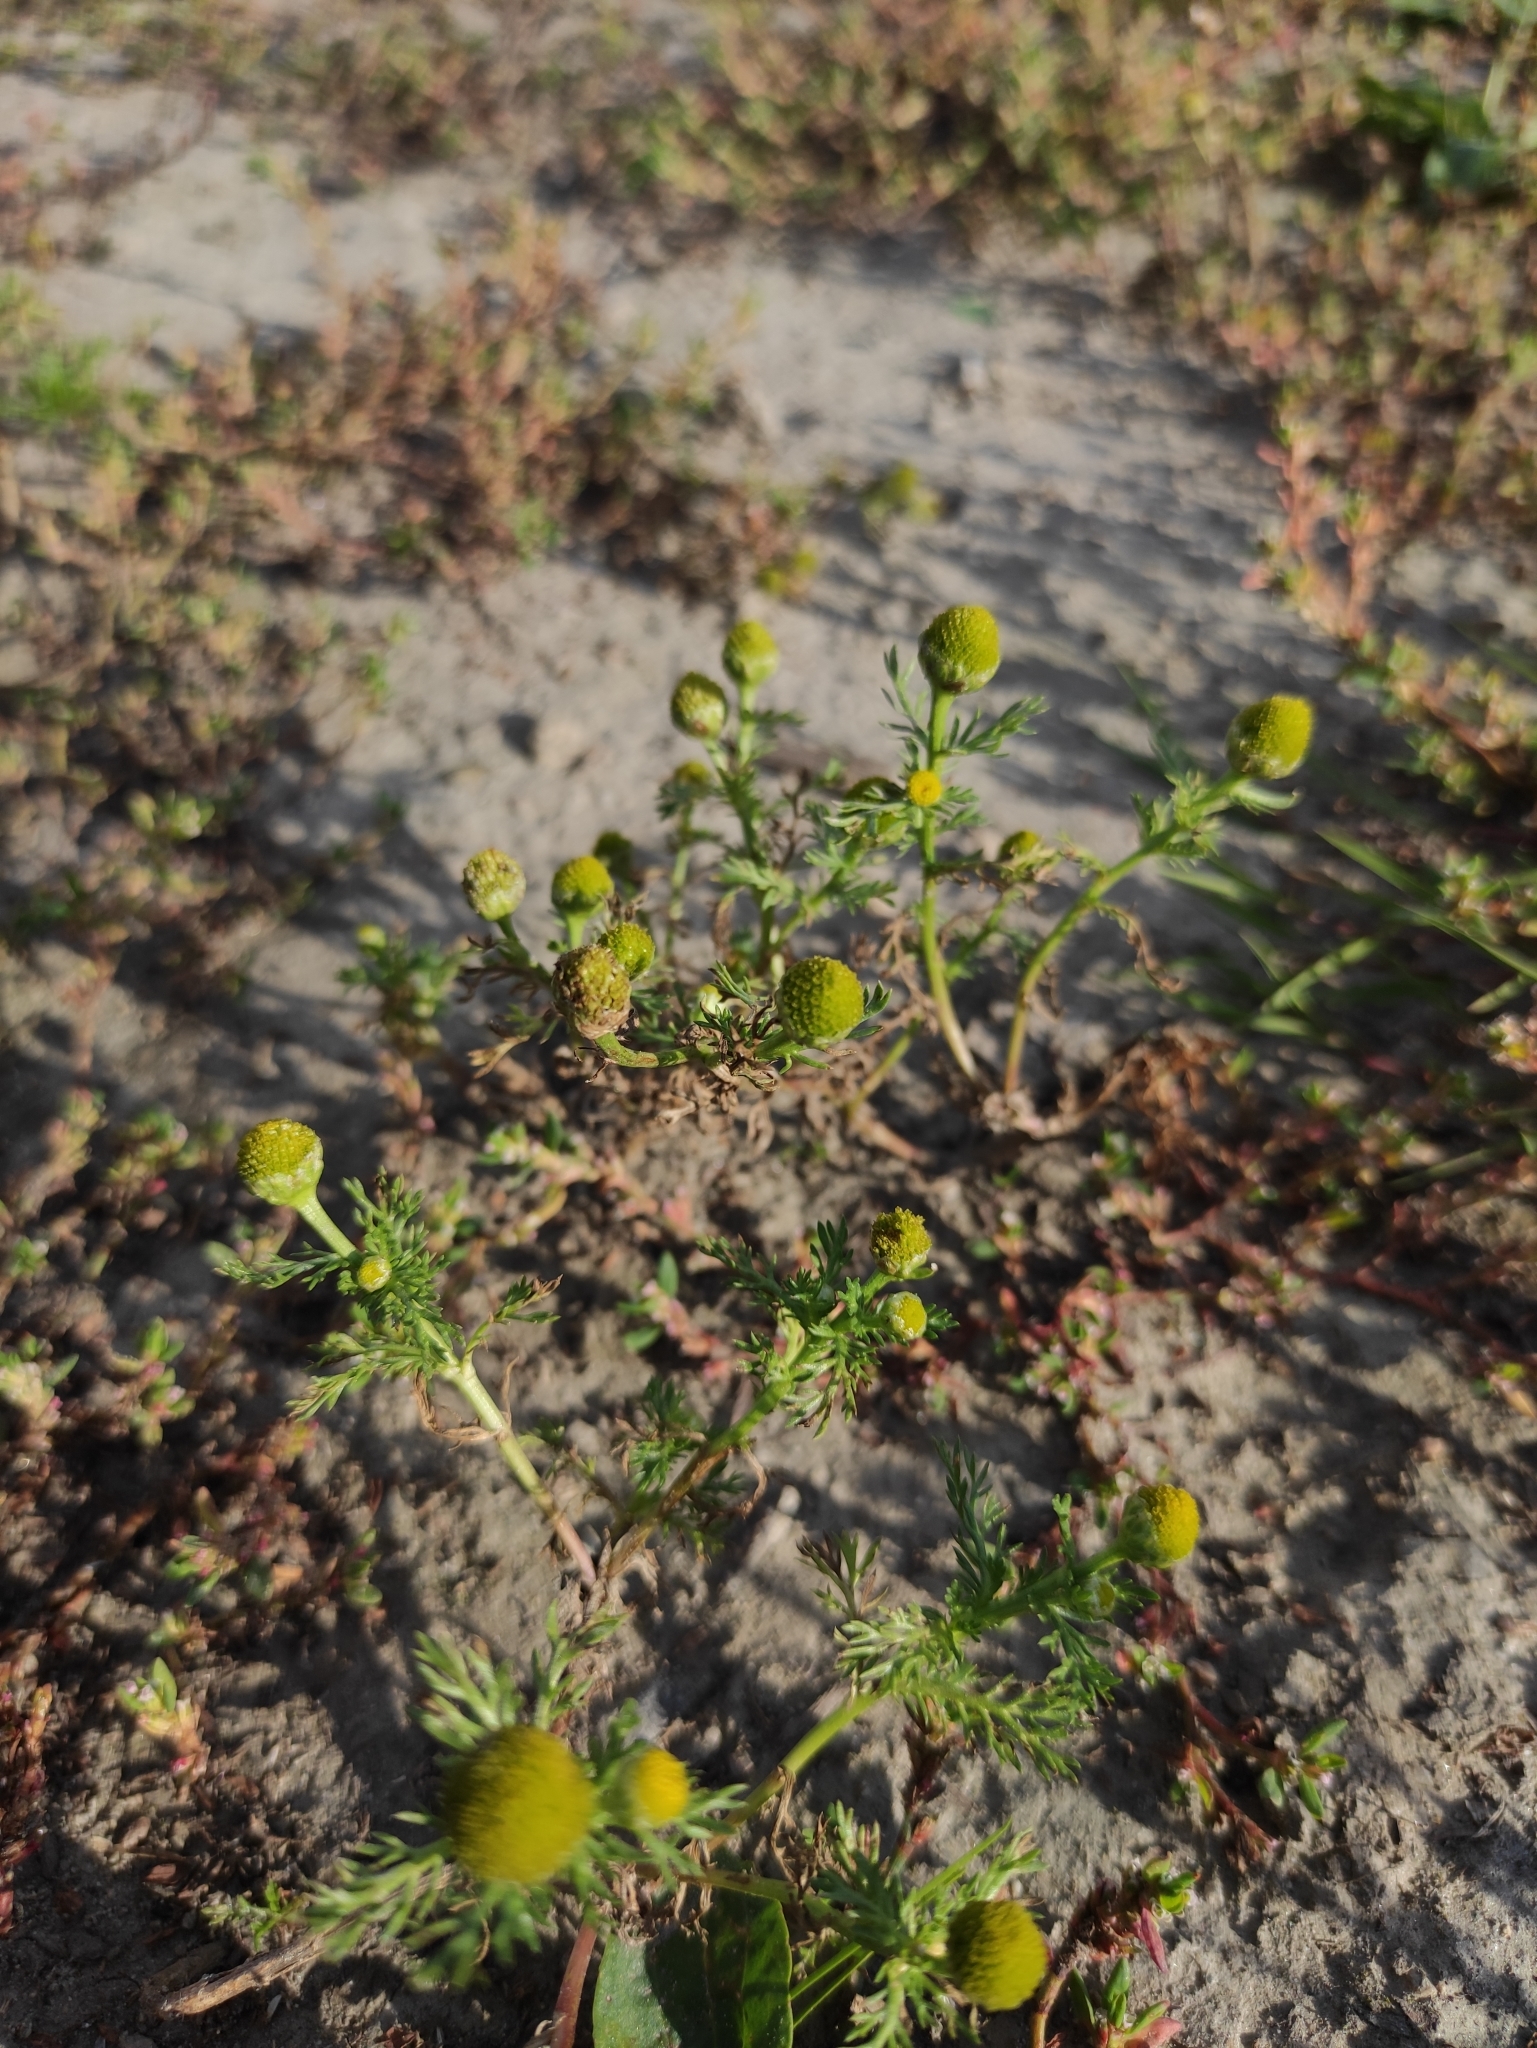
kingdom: Plantae
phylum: Tracheophyta
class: Magnoliopsida
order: Asterales
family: Asteraceae
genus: Matricaria
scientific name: Matricaria discoidea
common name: Disc mayweed
